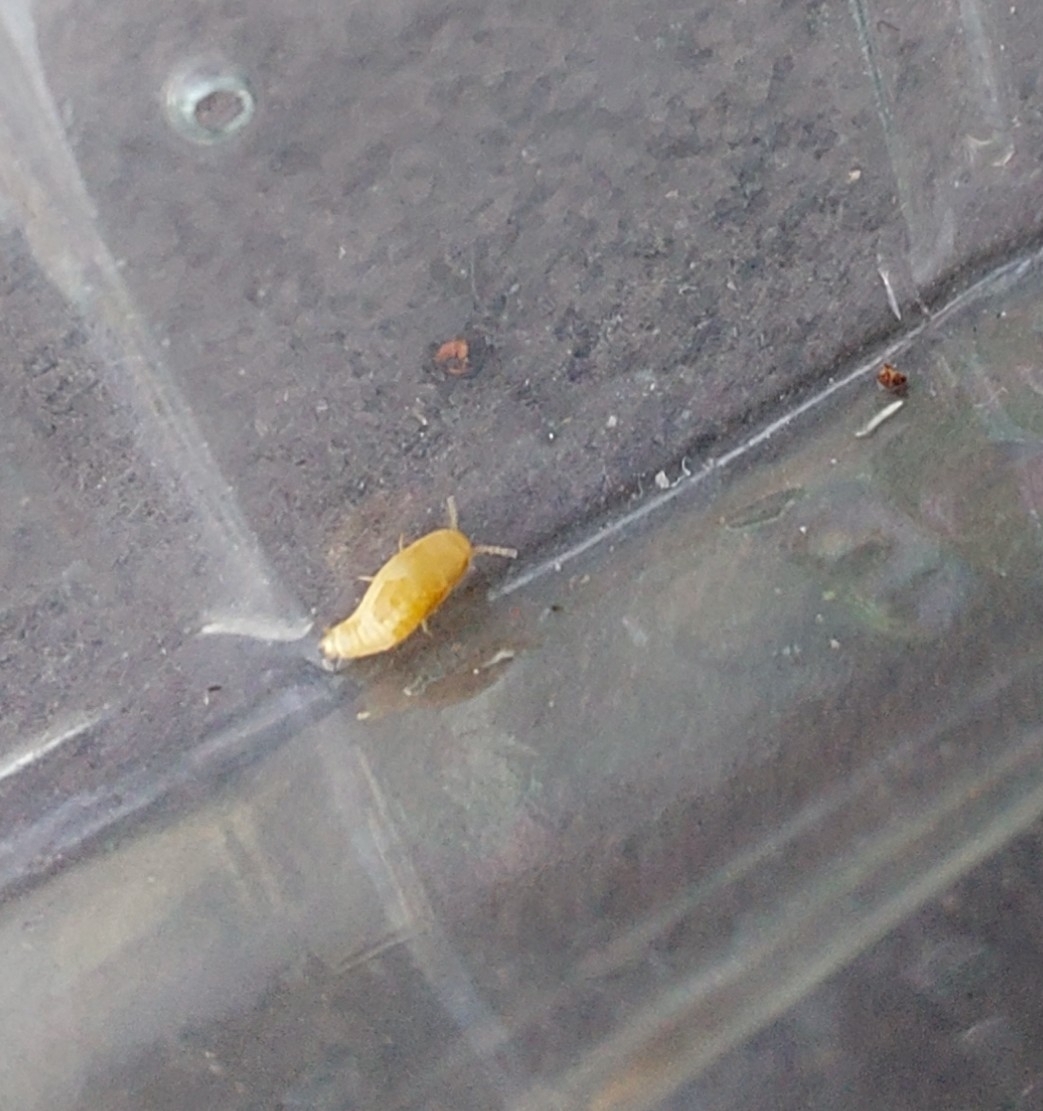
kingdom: Animalia
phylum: Arthropoda
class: Insecta
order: Zygentoma
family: Nicoletiidae
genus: Atelura
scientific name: Atelura formicaria
